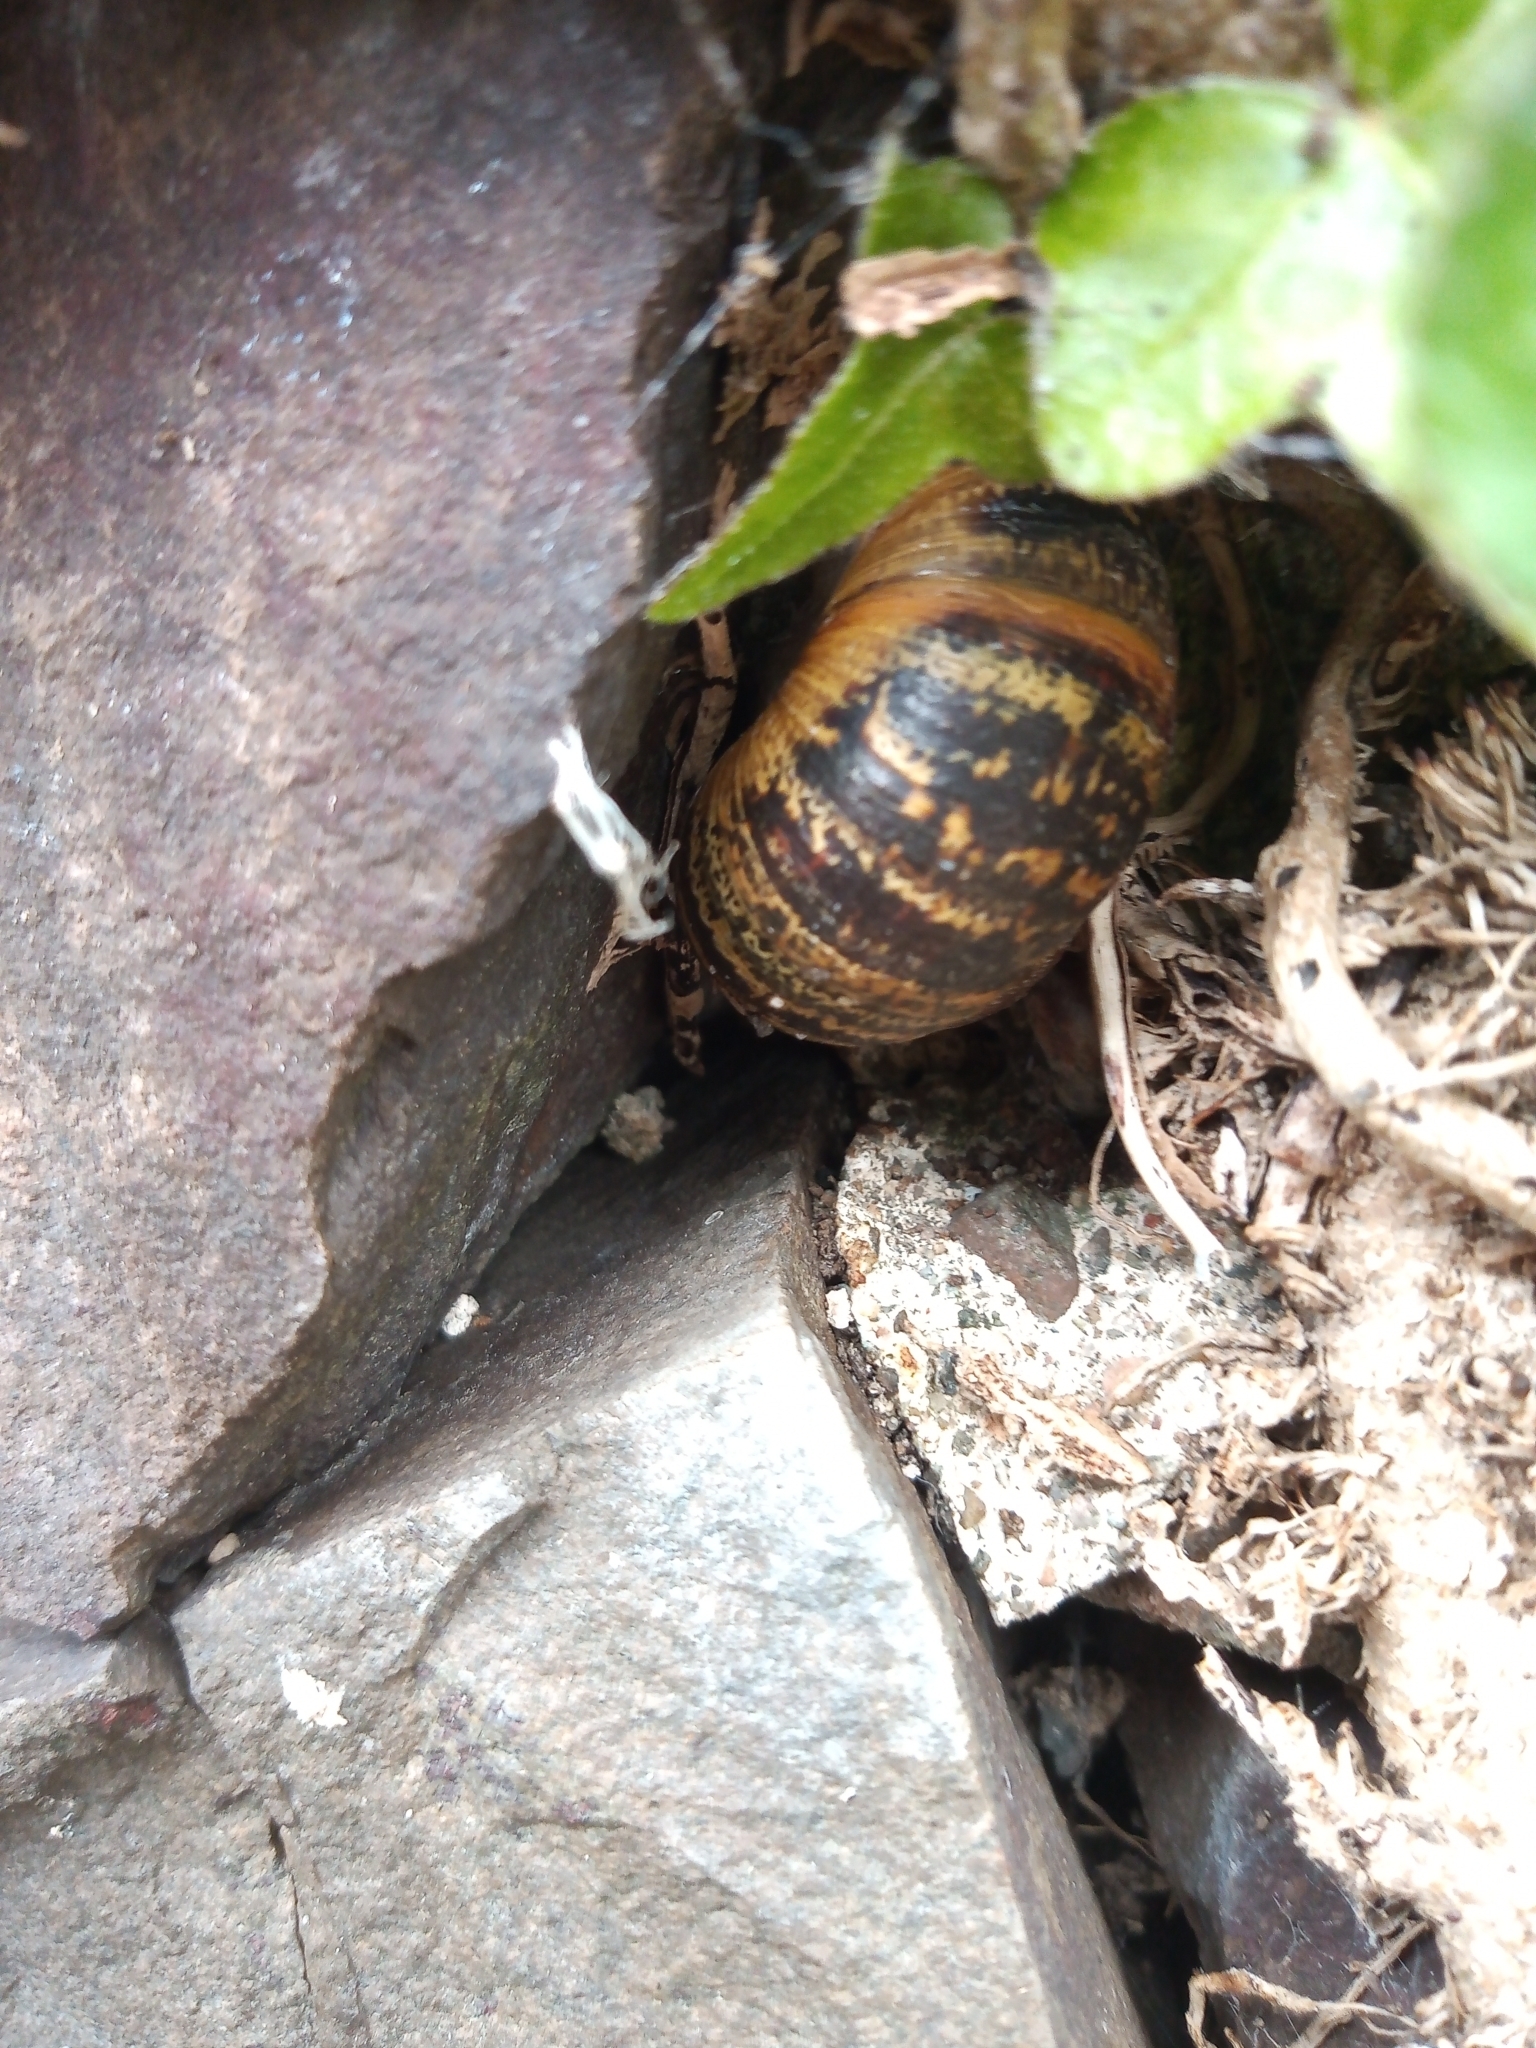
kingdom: Animalia
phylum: Mollusca
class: Gastropoda
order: Stylommatophora
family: Helicidae
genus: Cornu
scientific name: Cornu aspersum
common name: Brown garden snail
